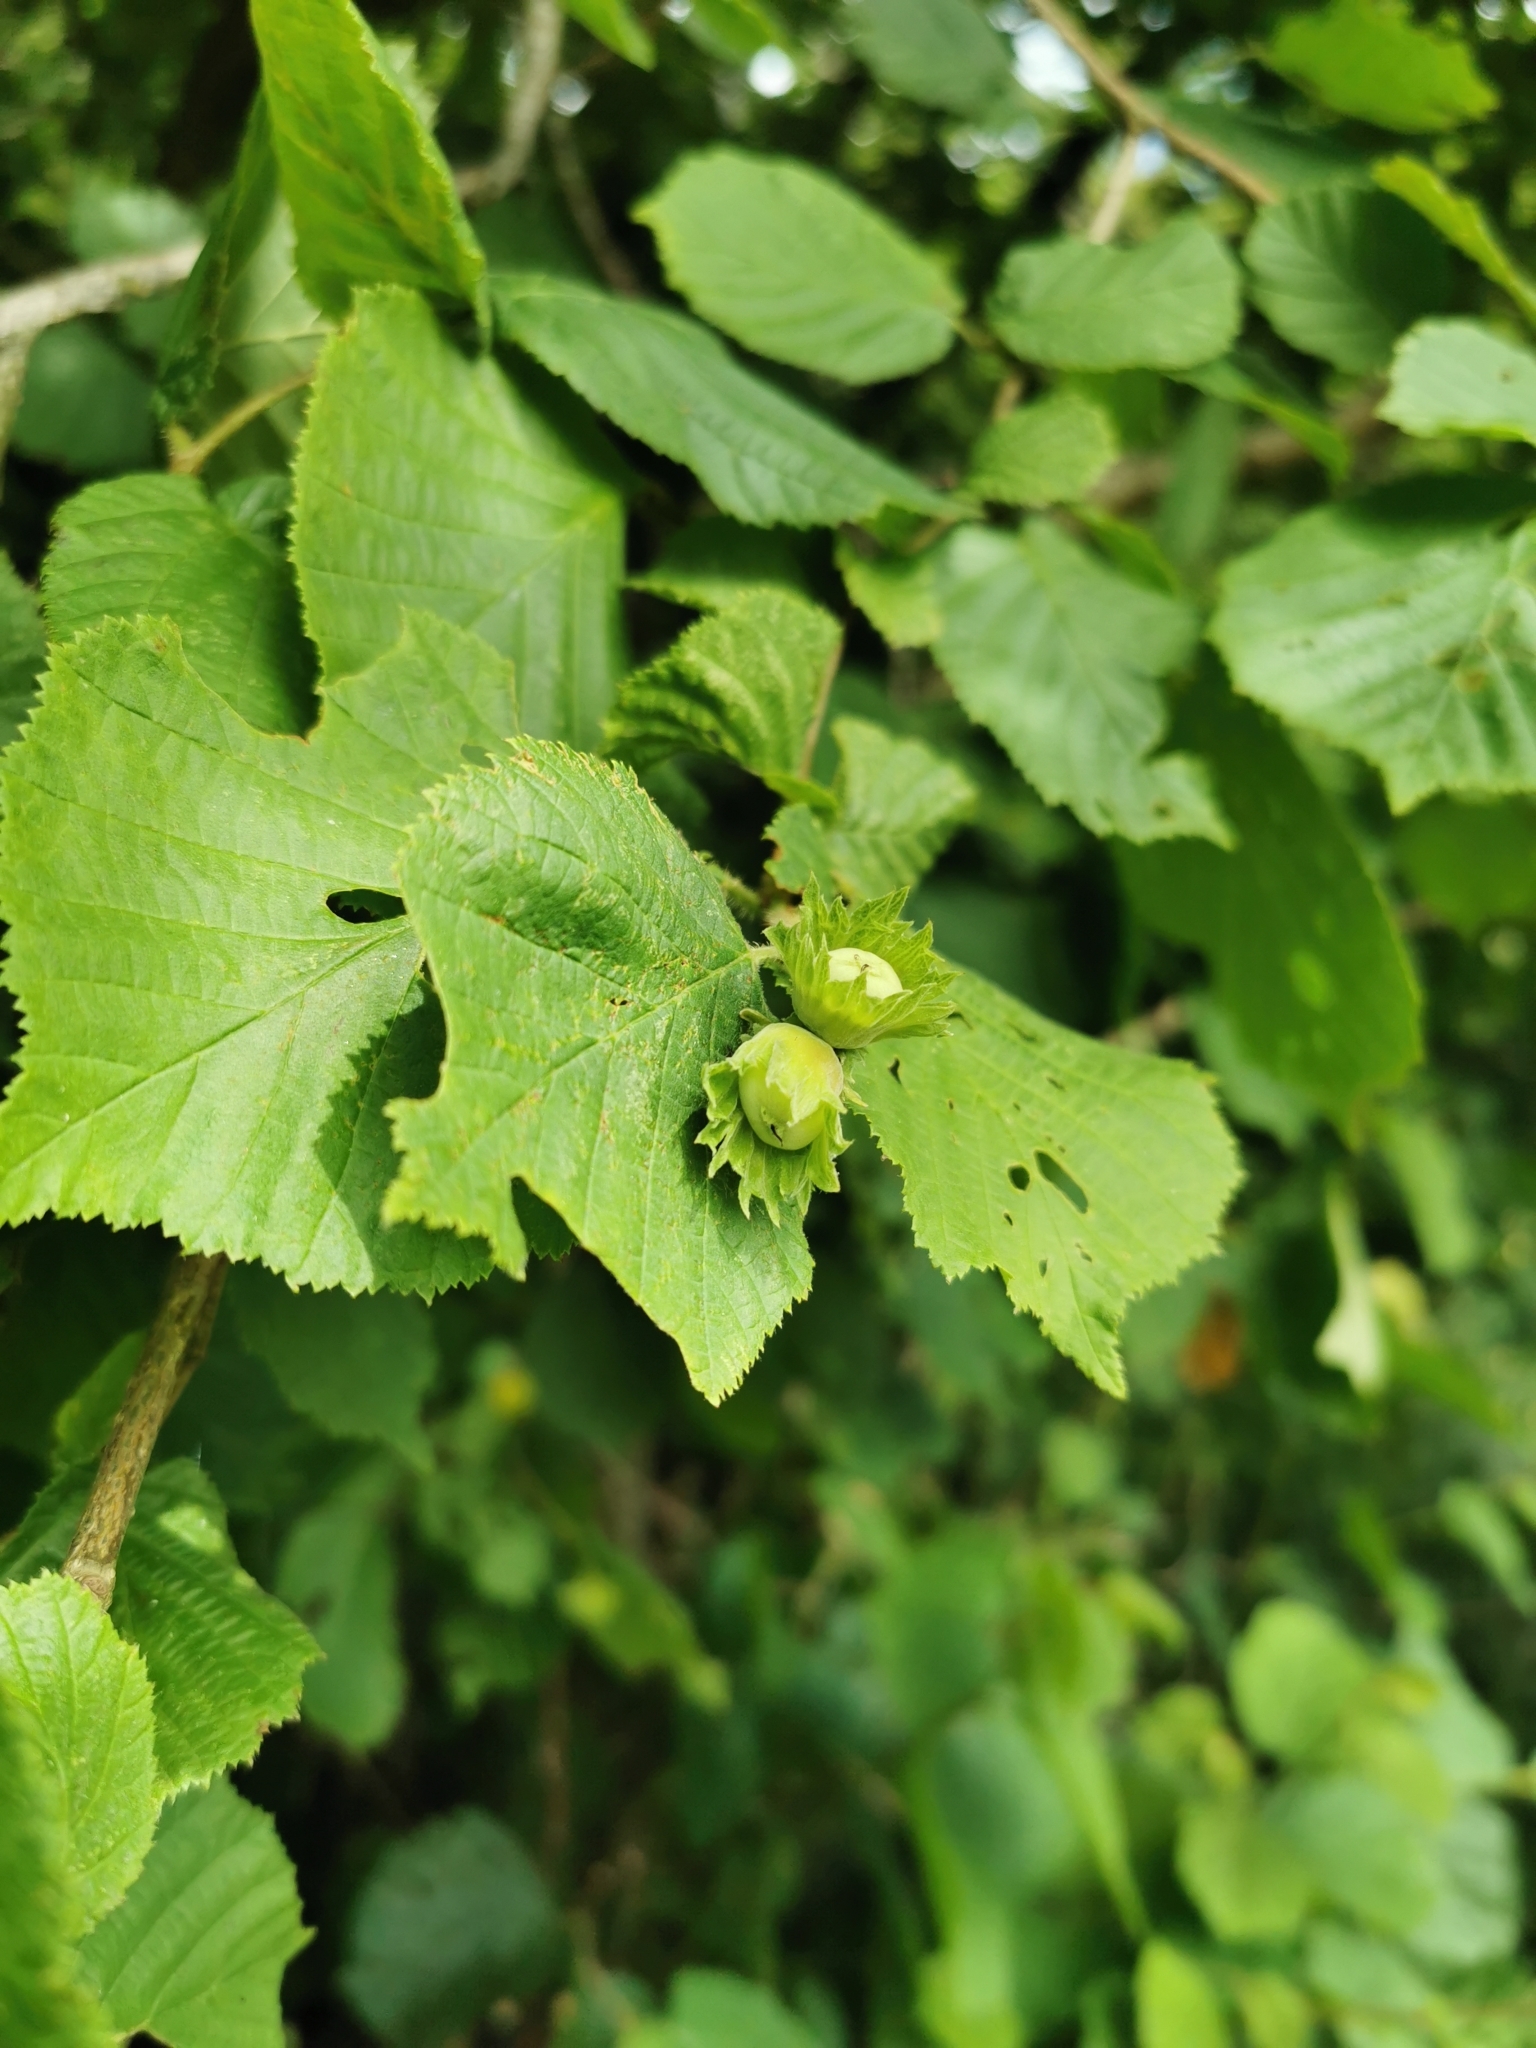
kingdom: Plantae
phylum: Tracheophyta
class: Magnoliopsida
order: Fagales
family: Betulaceae
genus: Corylus
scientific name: Corylus avellana
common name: European hazel
